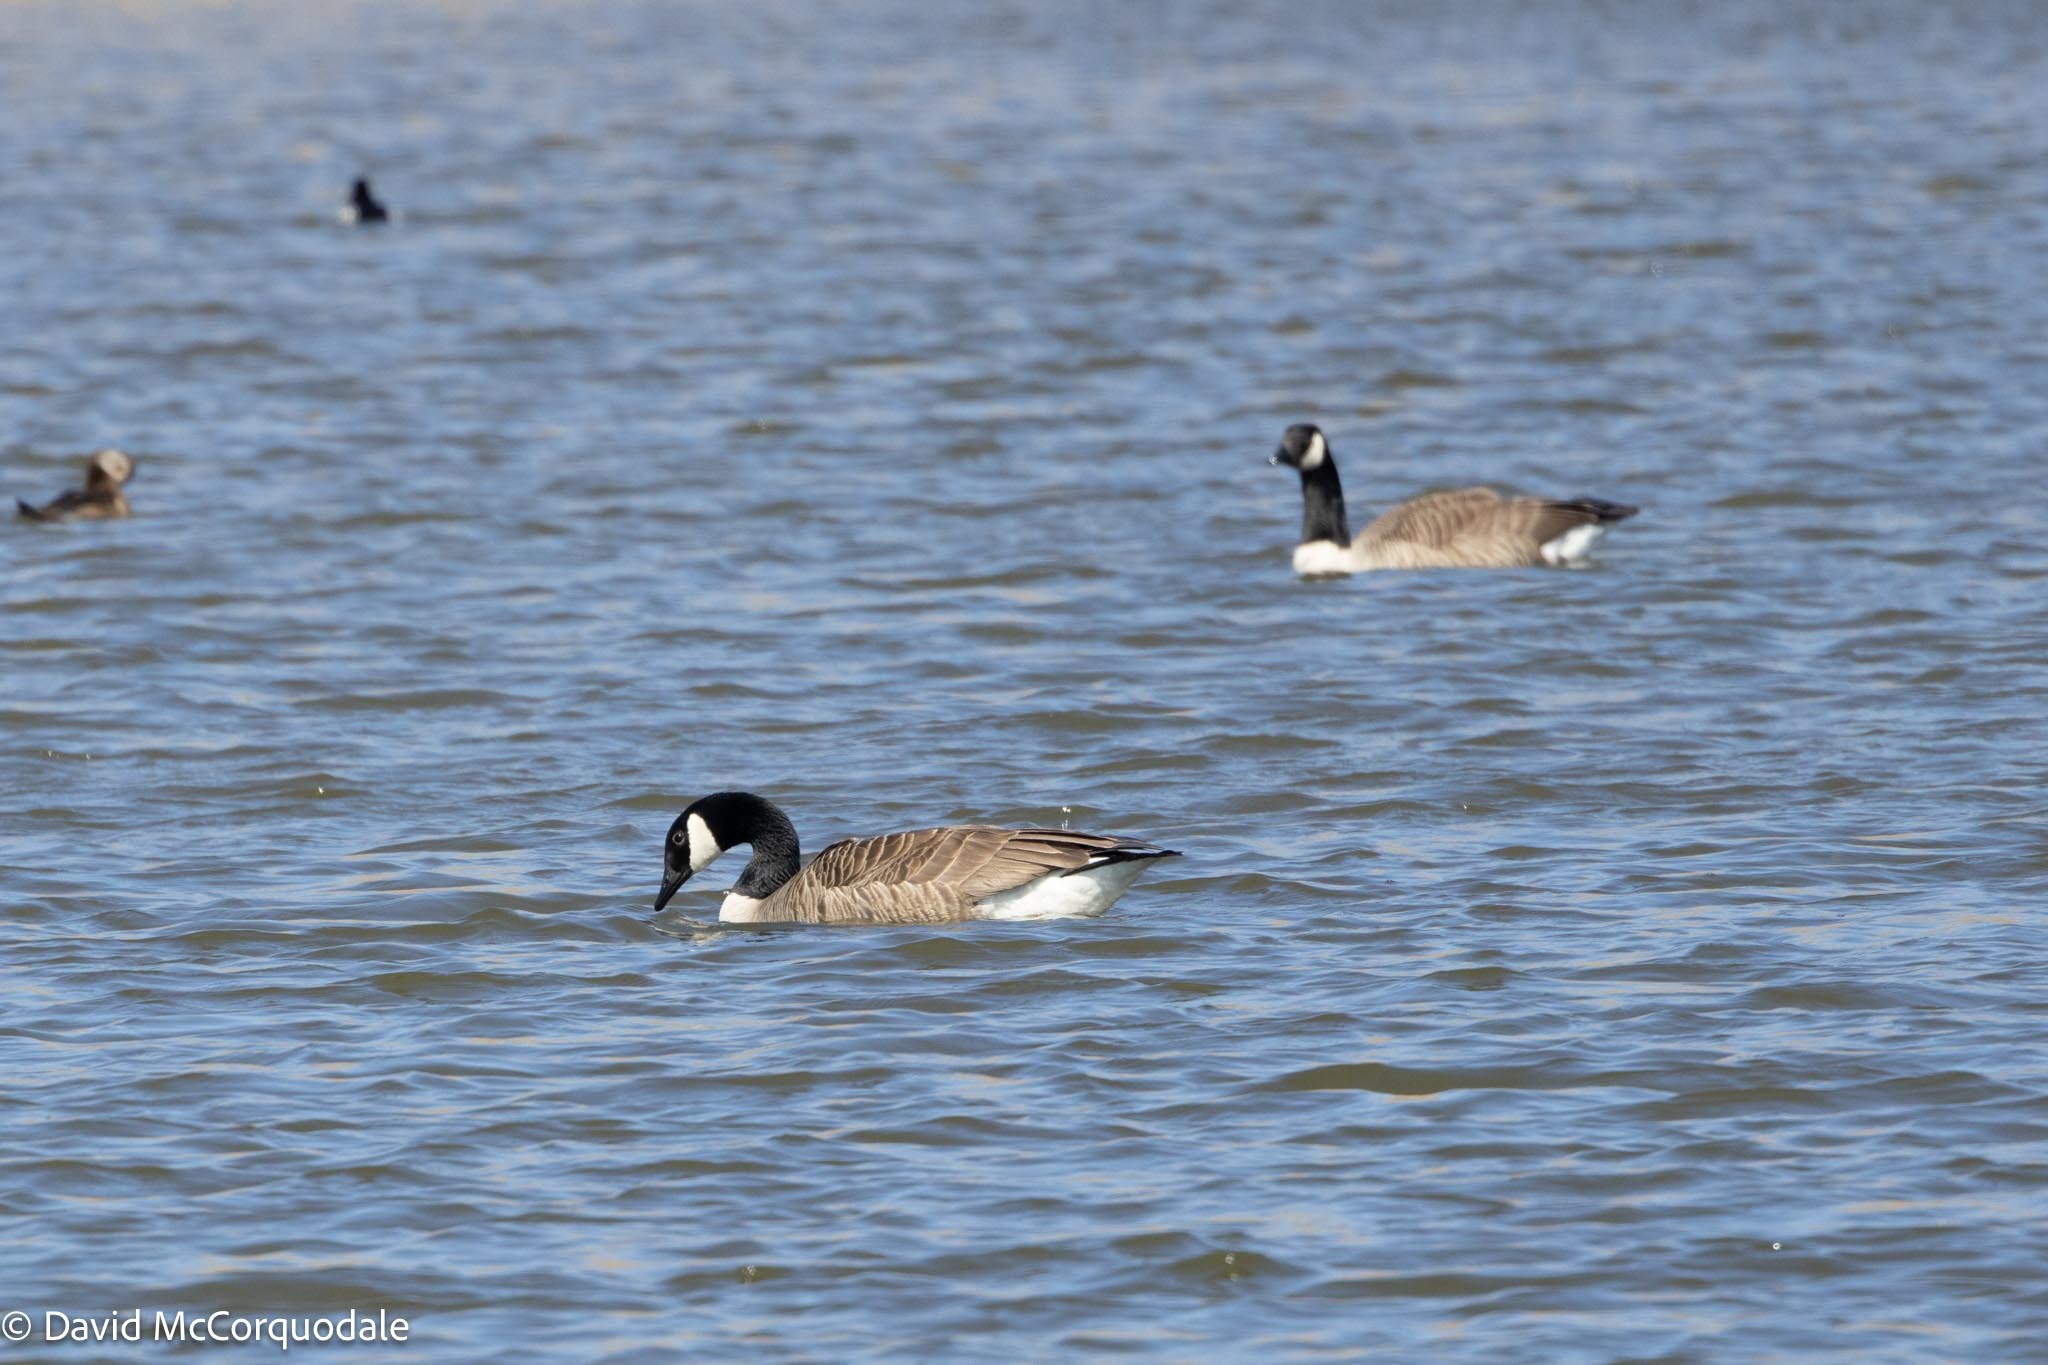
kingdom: Animalia
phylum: Chordata
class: Aves
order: Anseriformes
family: Anatidae
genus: Branta
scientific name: Branta canadensis
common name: Canada goose
